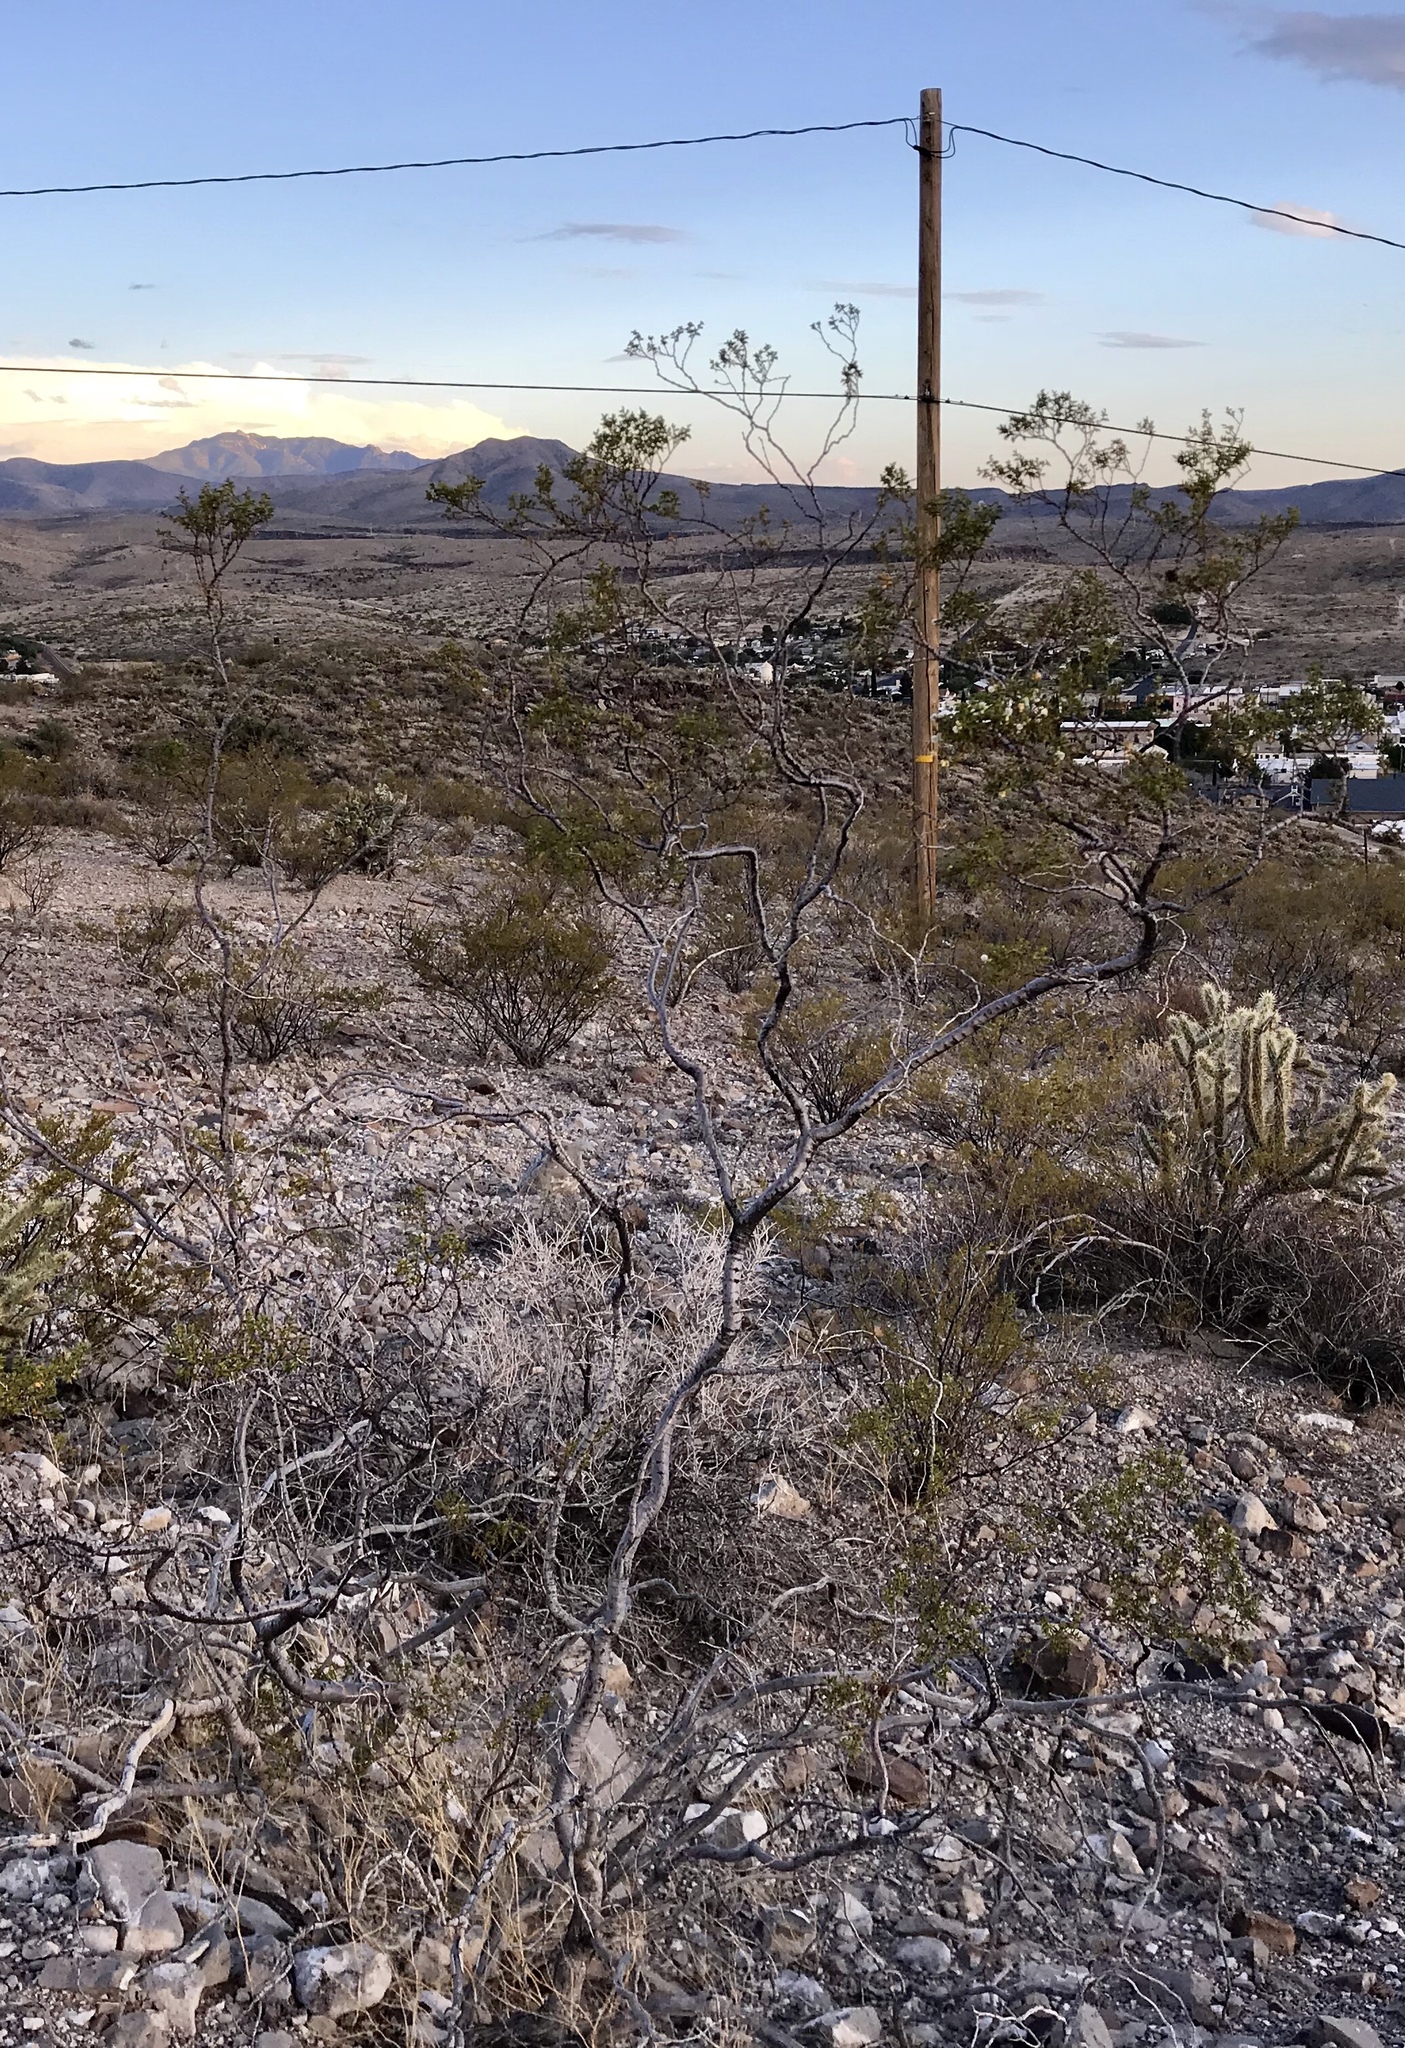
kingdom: Plantae
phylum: Tracheophyta
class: Magnoliopsida
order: Zygophyllales
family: Zygophyllaceae
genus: Larrea
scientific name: Larrea tridentata
